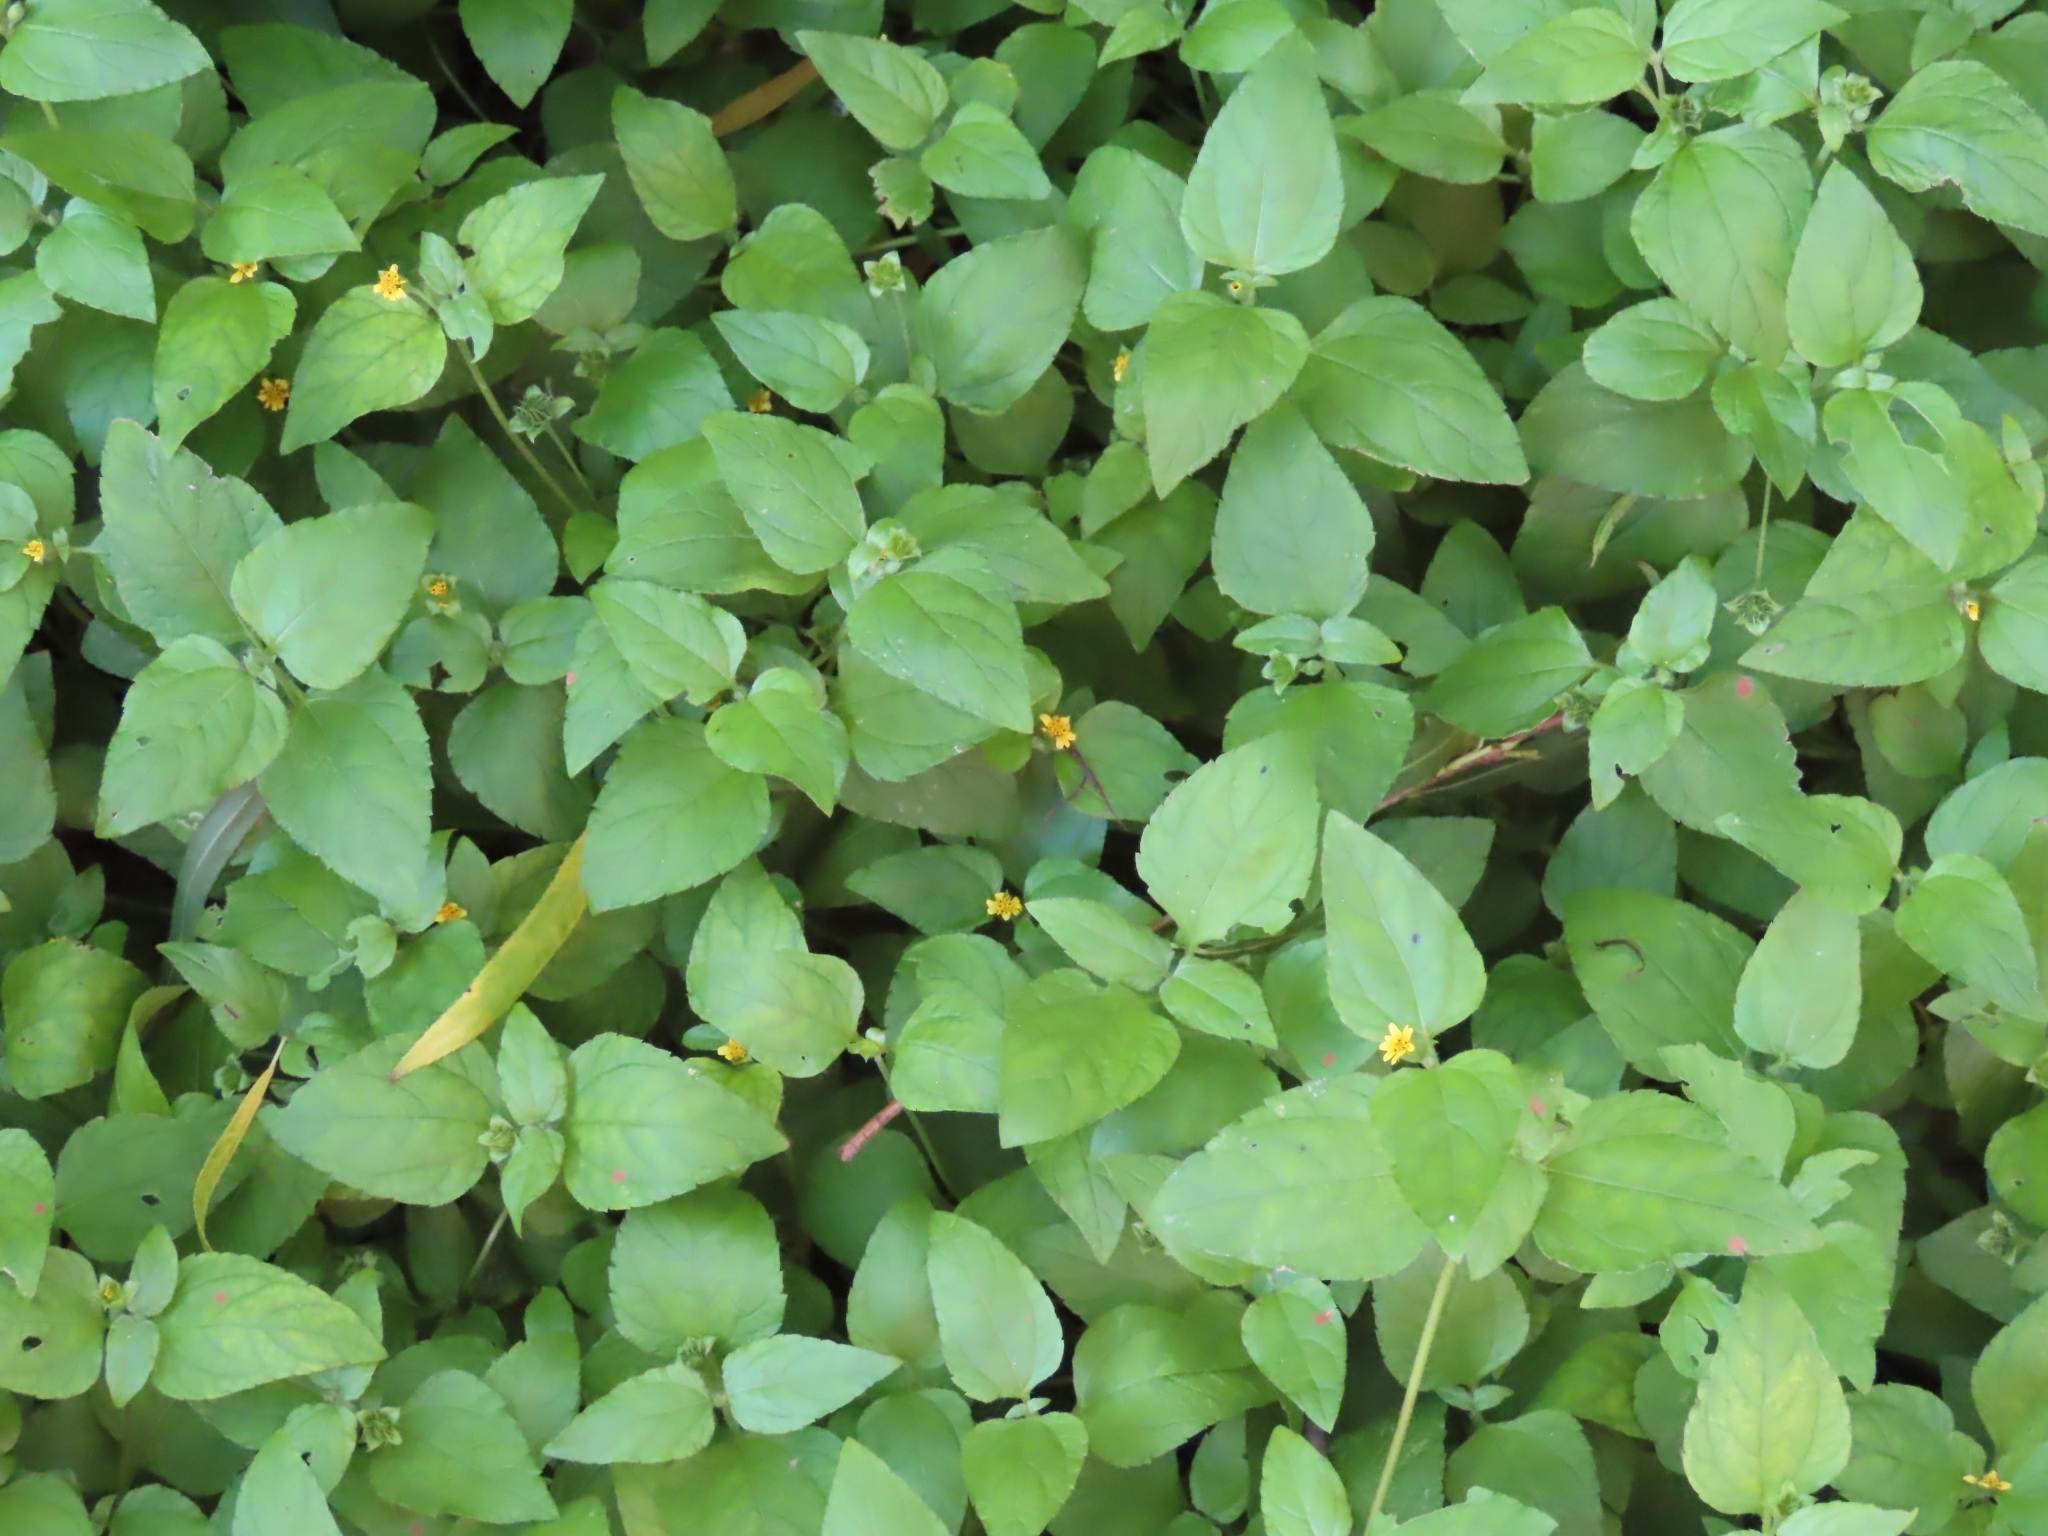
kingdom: Plantae
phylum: Tracheophyta
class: Magnoliopsida
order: Asterales
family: Asteraceae
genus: Calyptocarpus
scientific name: Calyptocarpus vialis
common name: Straggler daisy
